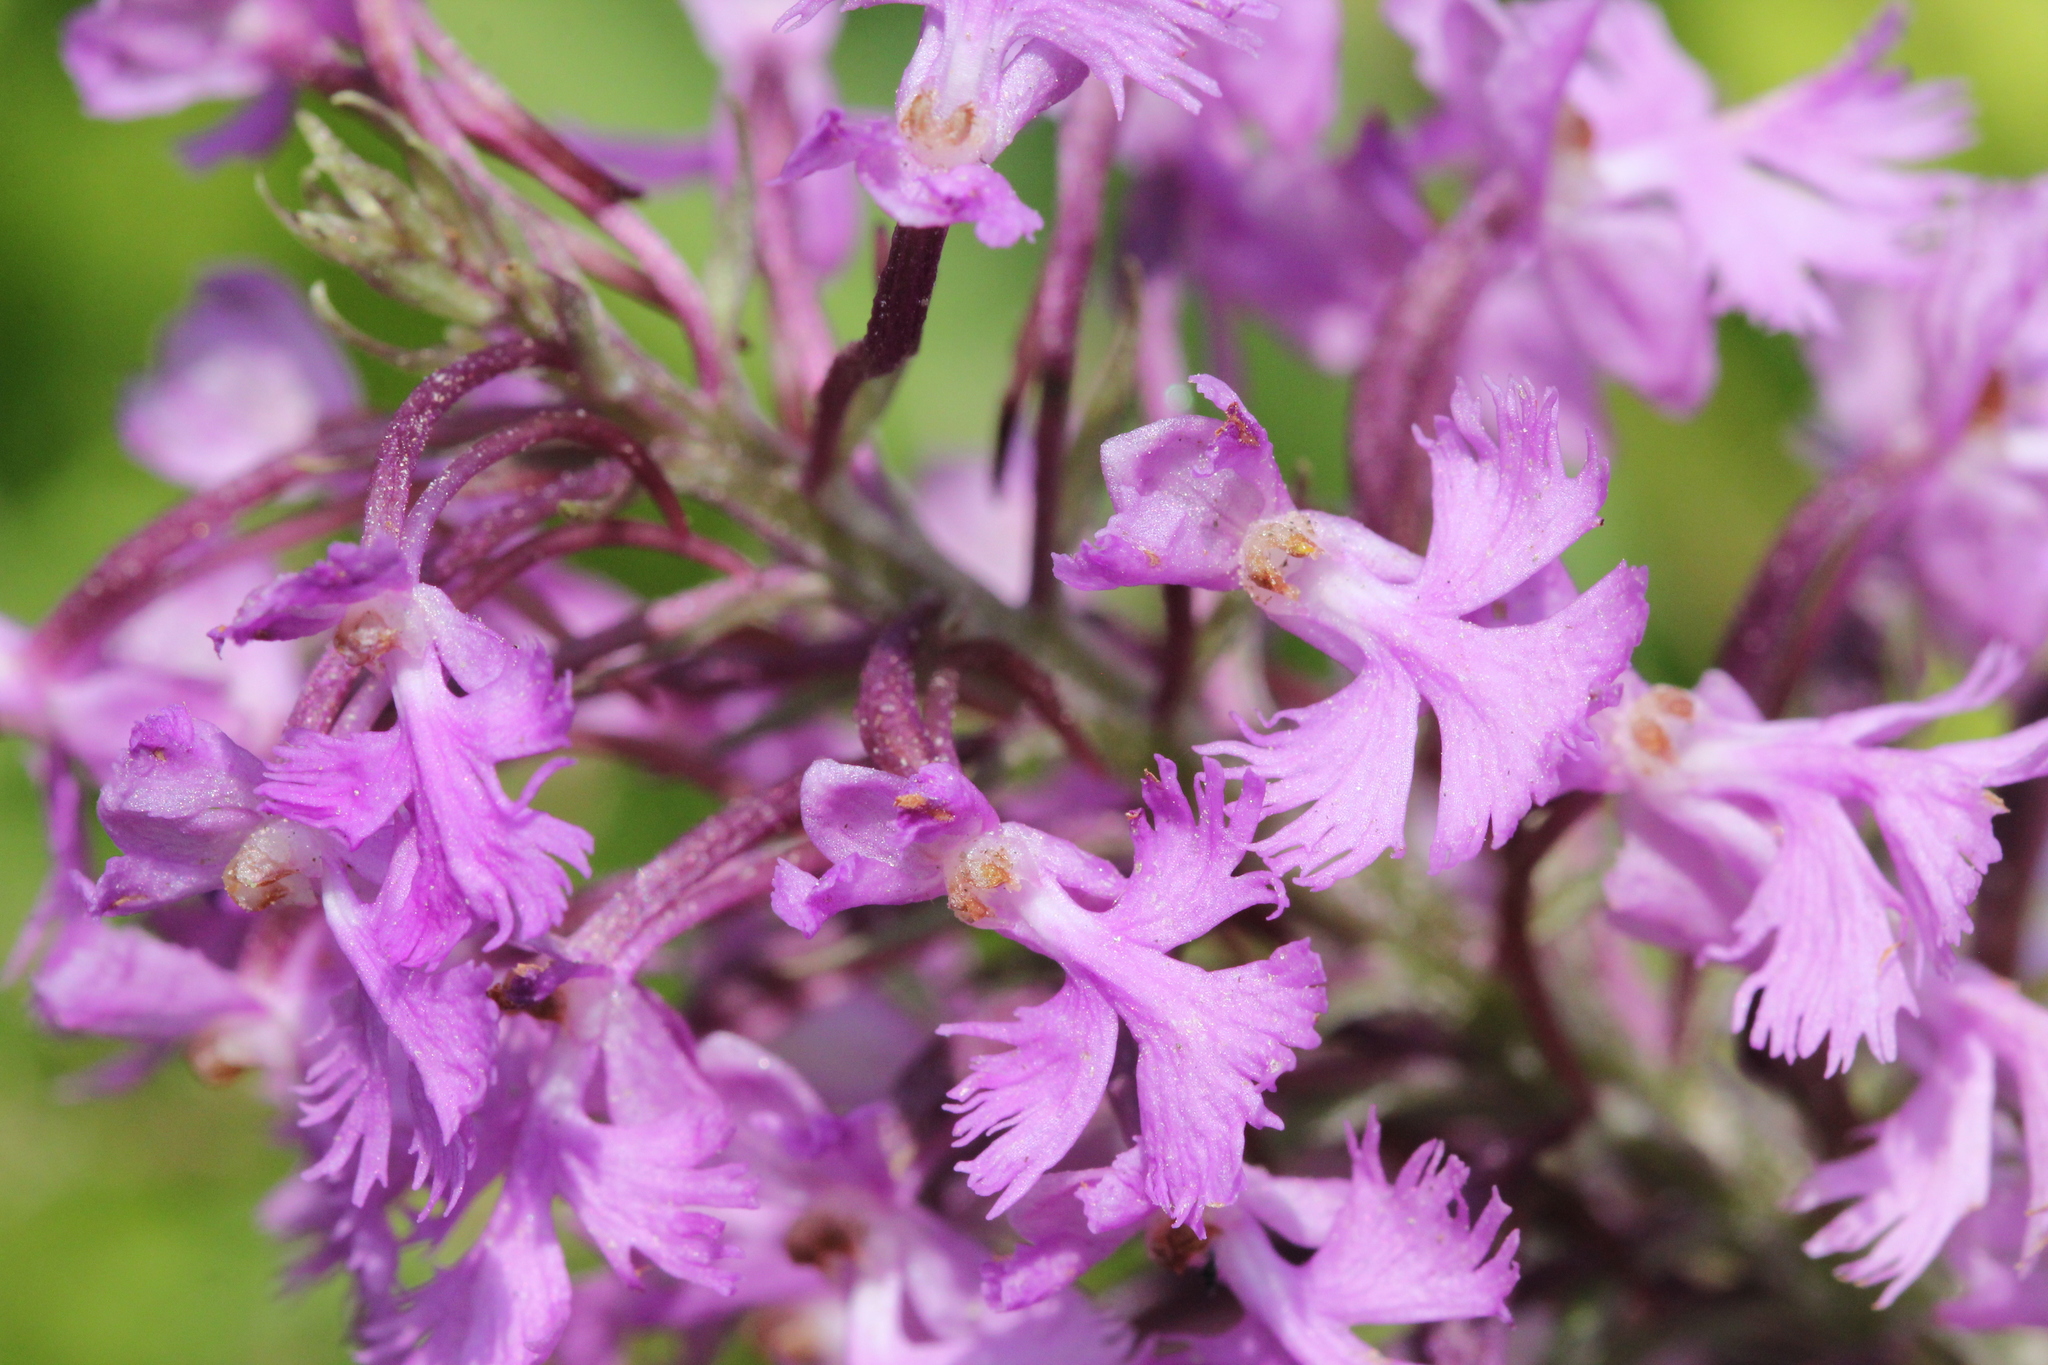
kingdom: Plantae
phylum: Tracheophyta
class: Liliopsida
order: Asparagales
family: Orchidaceae
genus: Platanthera
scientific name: Platanthera psycodes
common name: Lesser purple fringed orchid
